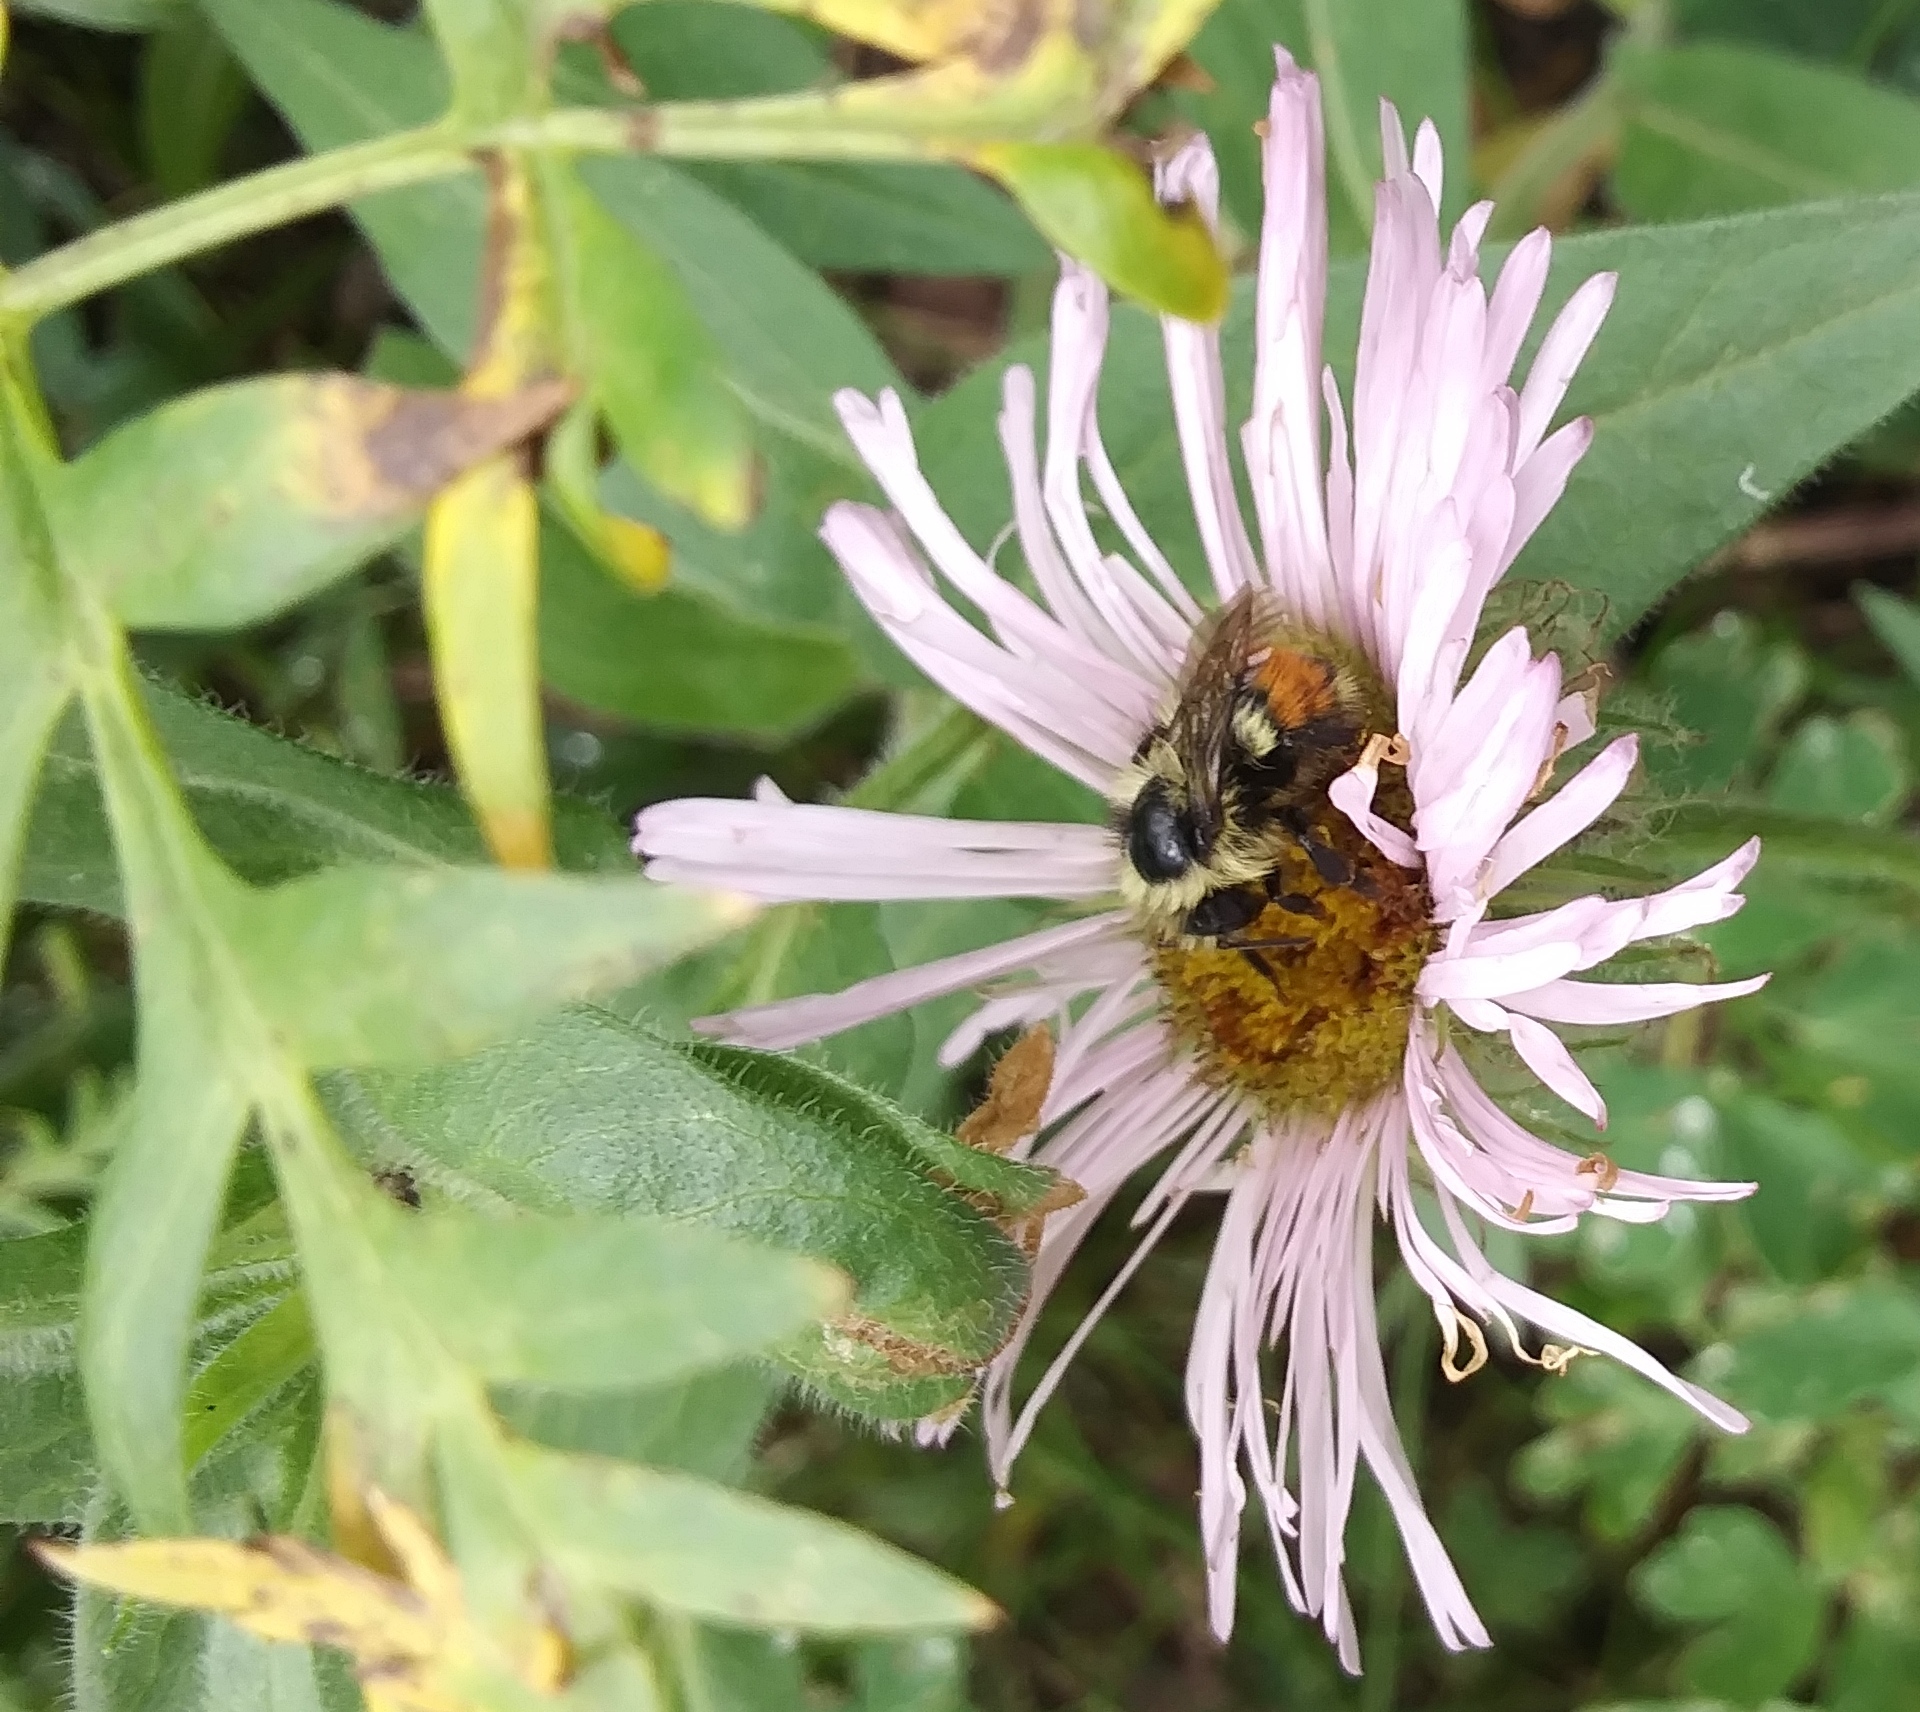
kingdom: Animalia
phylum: Arthropoda
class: Insecta
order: Hymenoptera
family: Apidae
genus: Pyrobombus
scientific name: Pyrobombus
